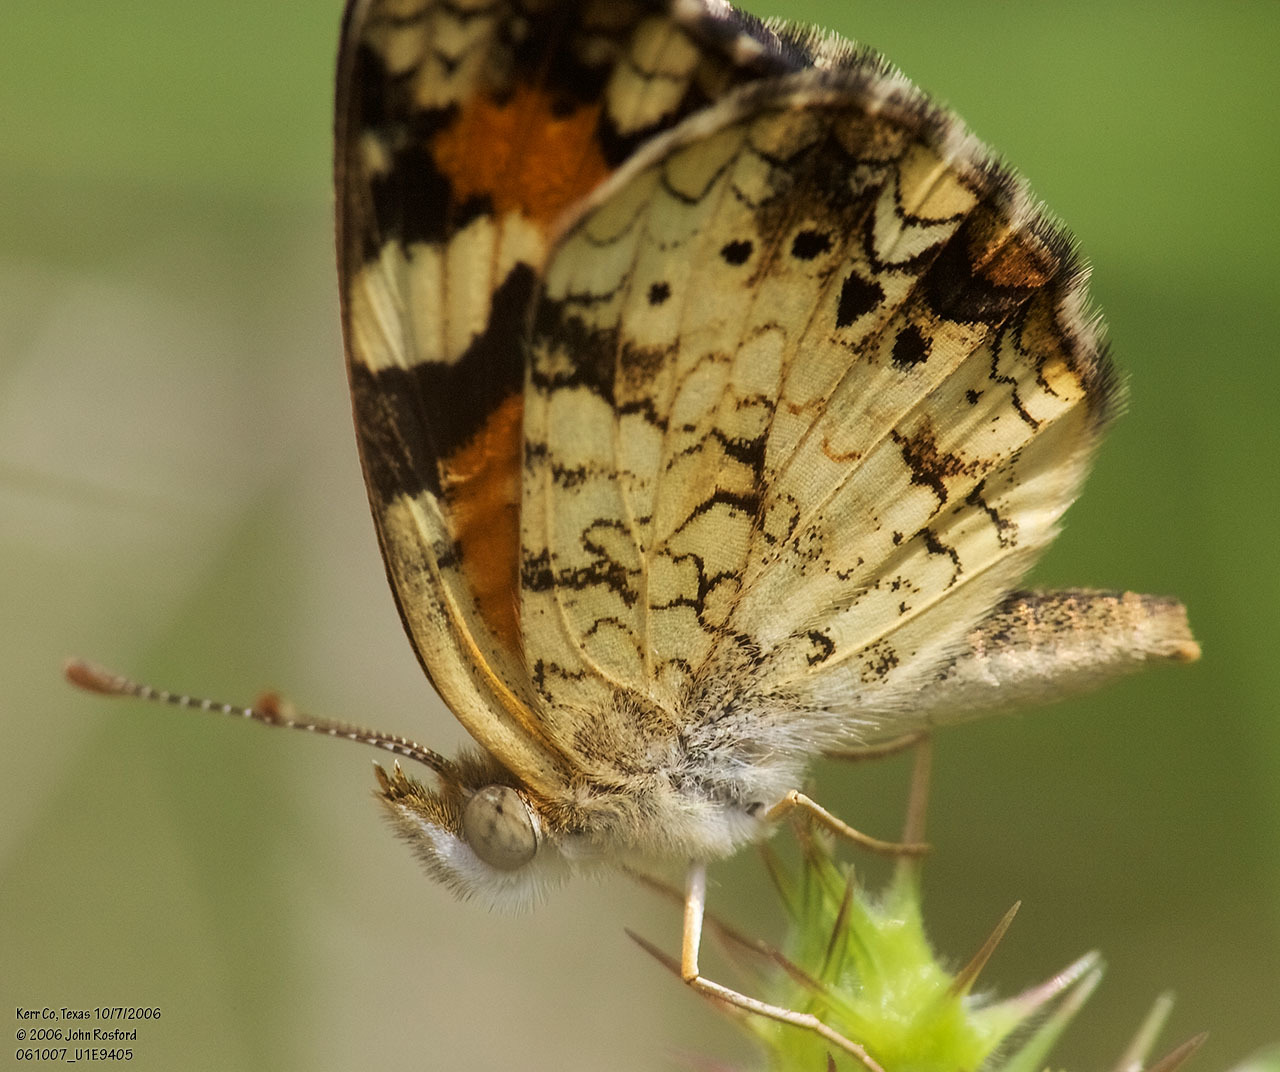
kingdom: Animalia
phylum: Arthropoda
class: Insecta
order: Lepidoptera
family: Nymphalidae
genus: Phyciodes
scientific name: Phyciodes phaon
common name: Phaon crescent
